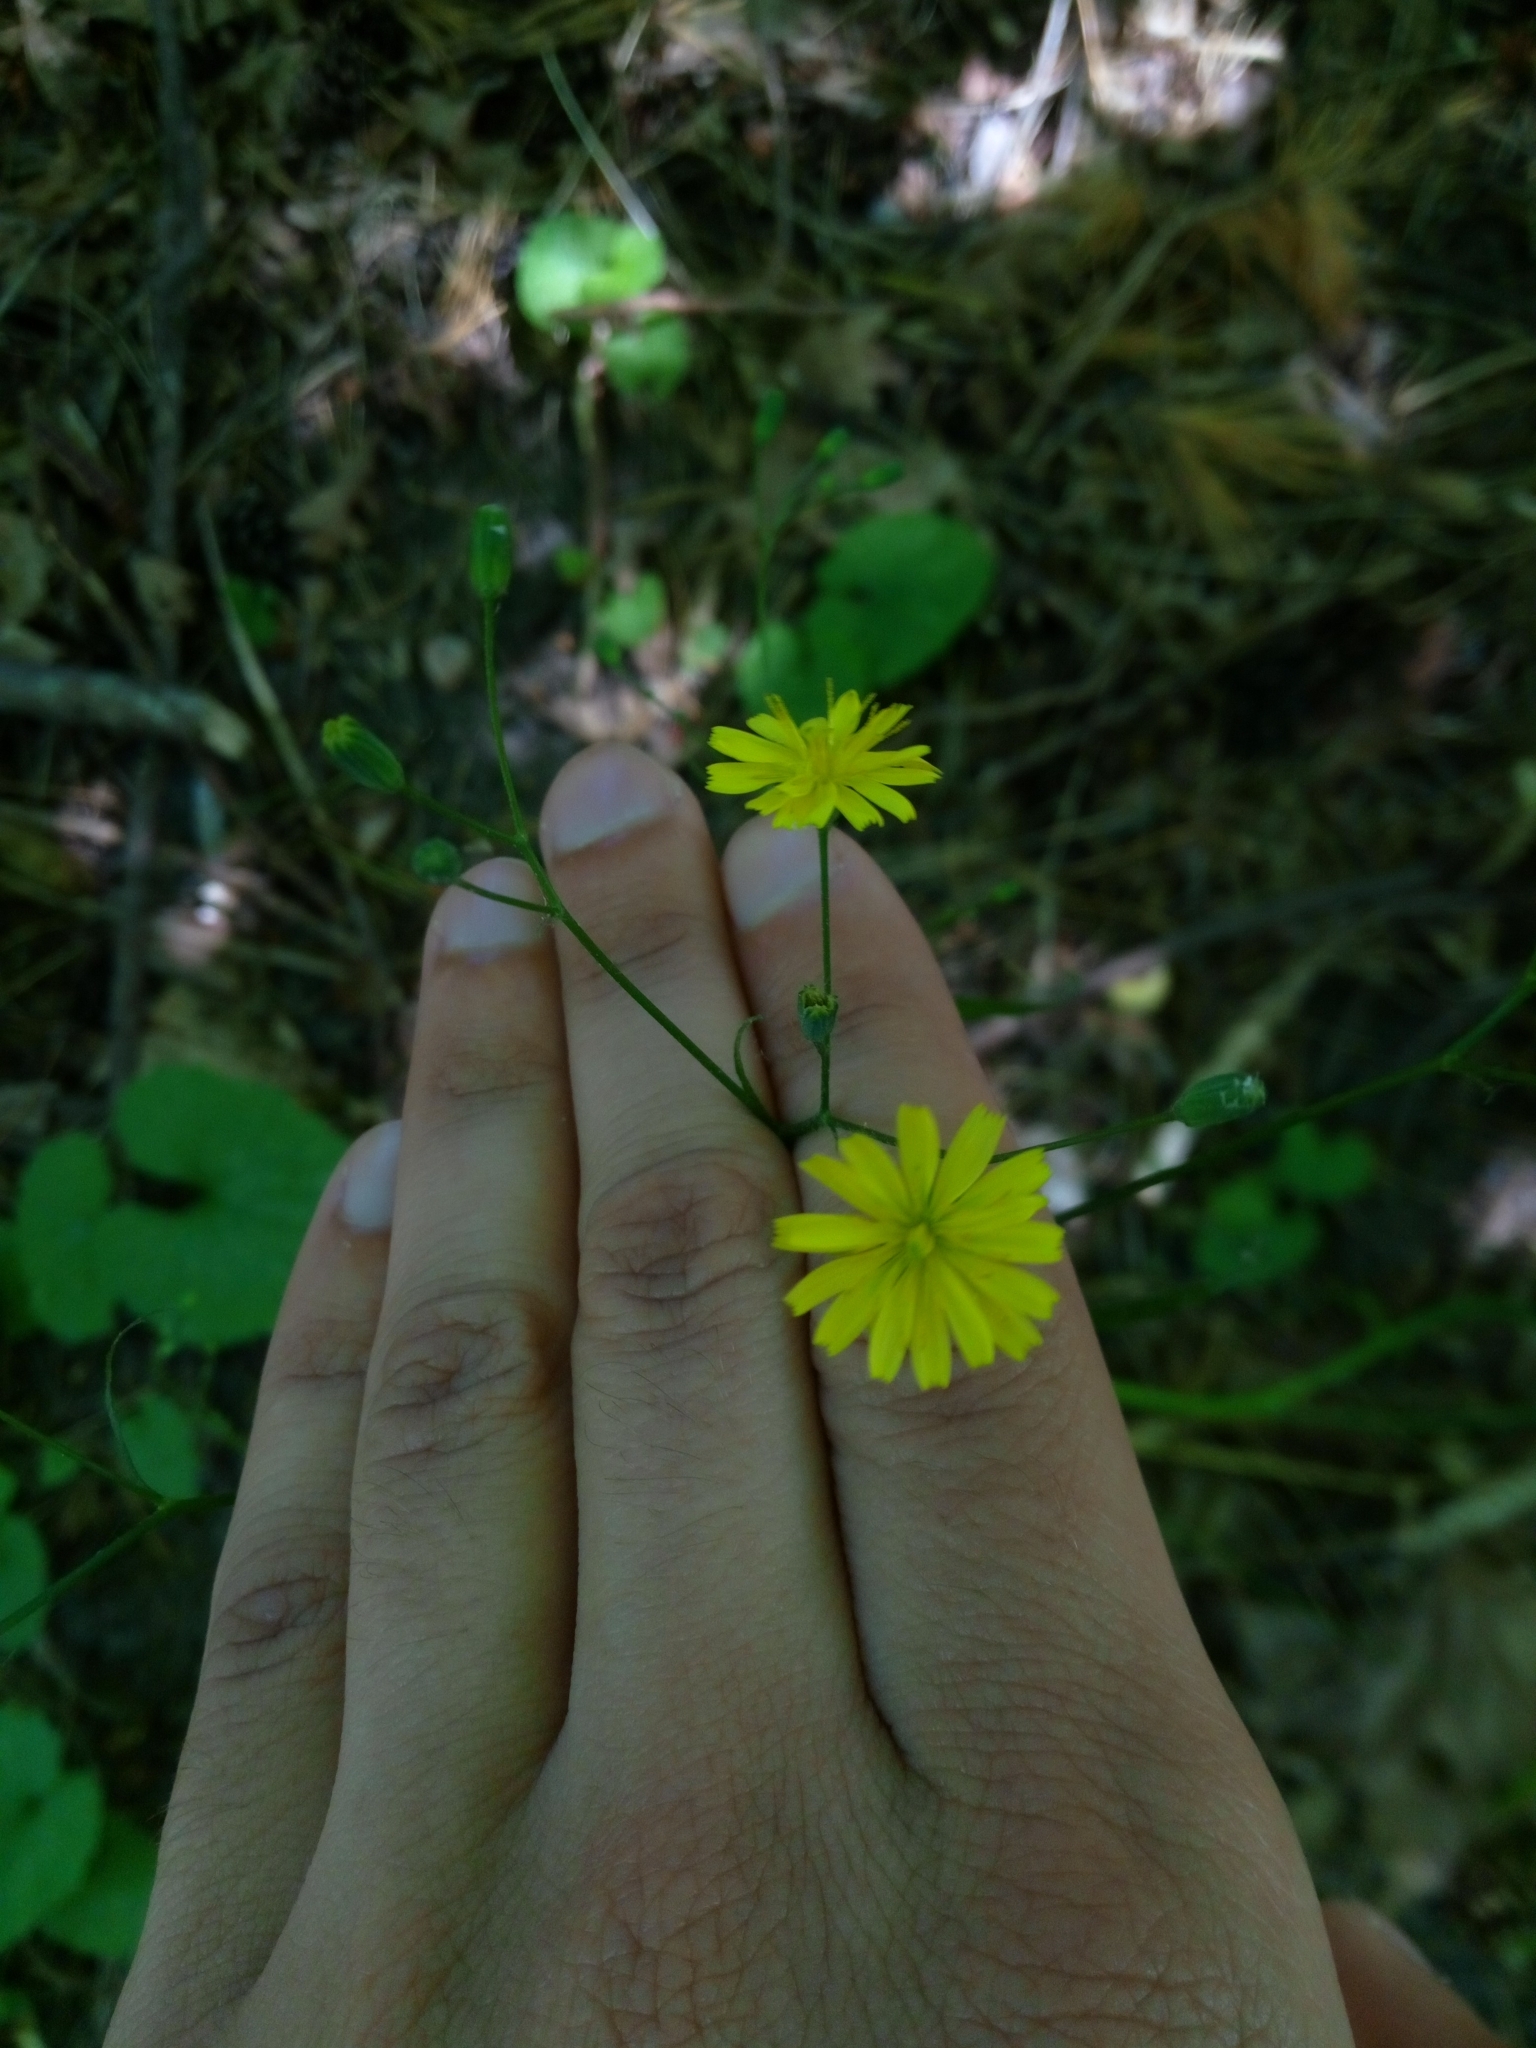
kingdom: Plantae
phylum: Tracheophyta
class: Magnoliopsida
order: Asterales
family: Asteraceae
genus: Lapsana
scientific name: Lapsana communis
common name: Nipplewort
